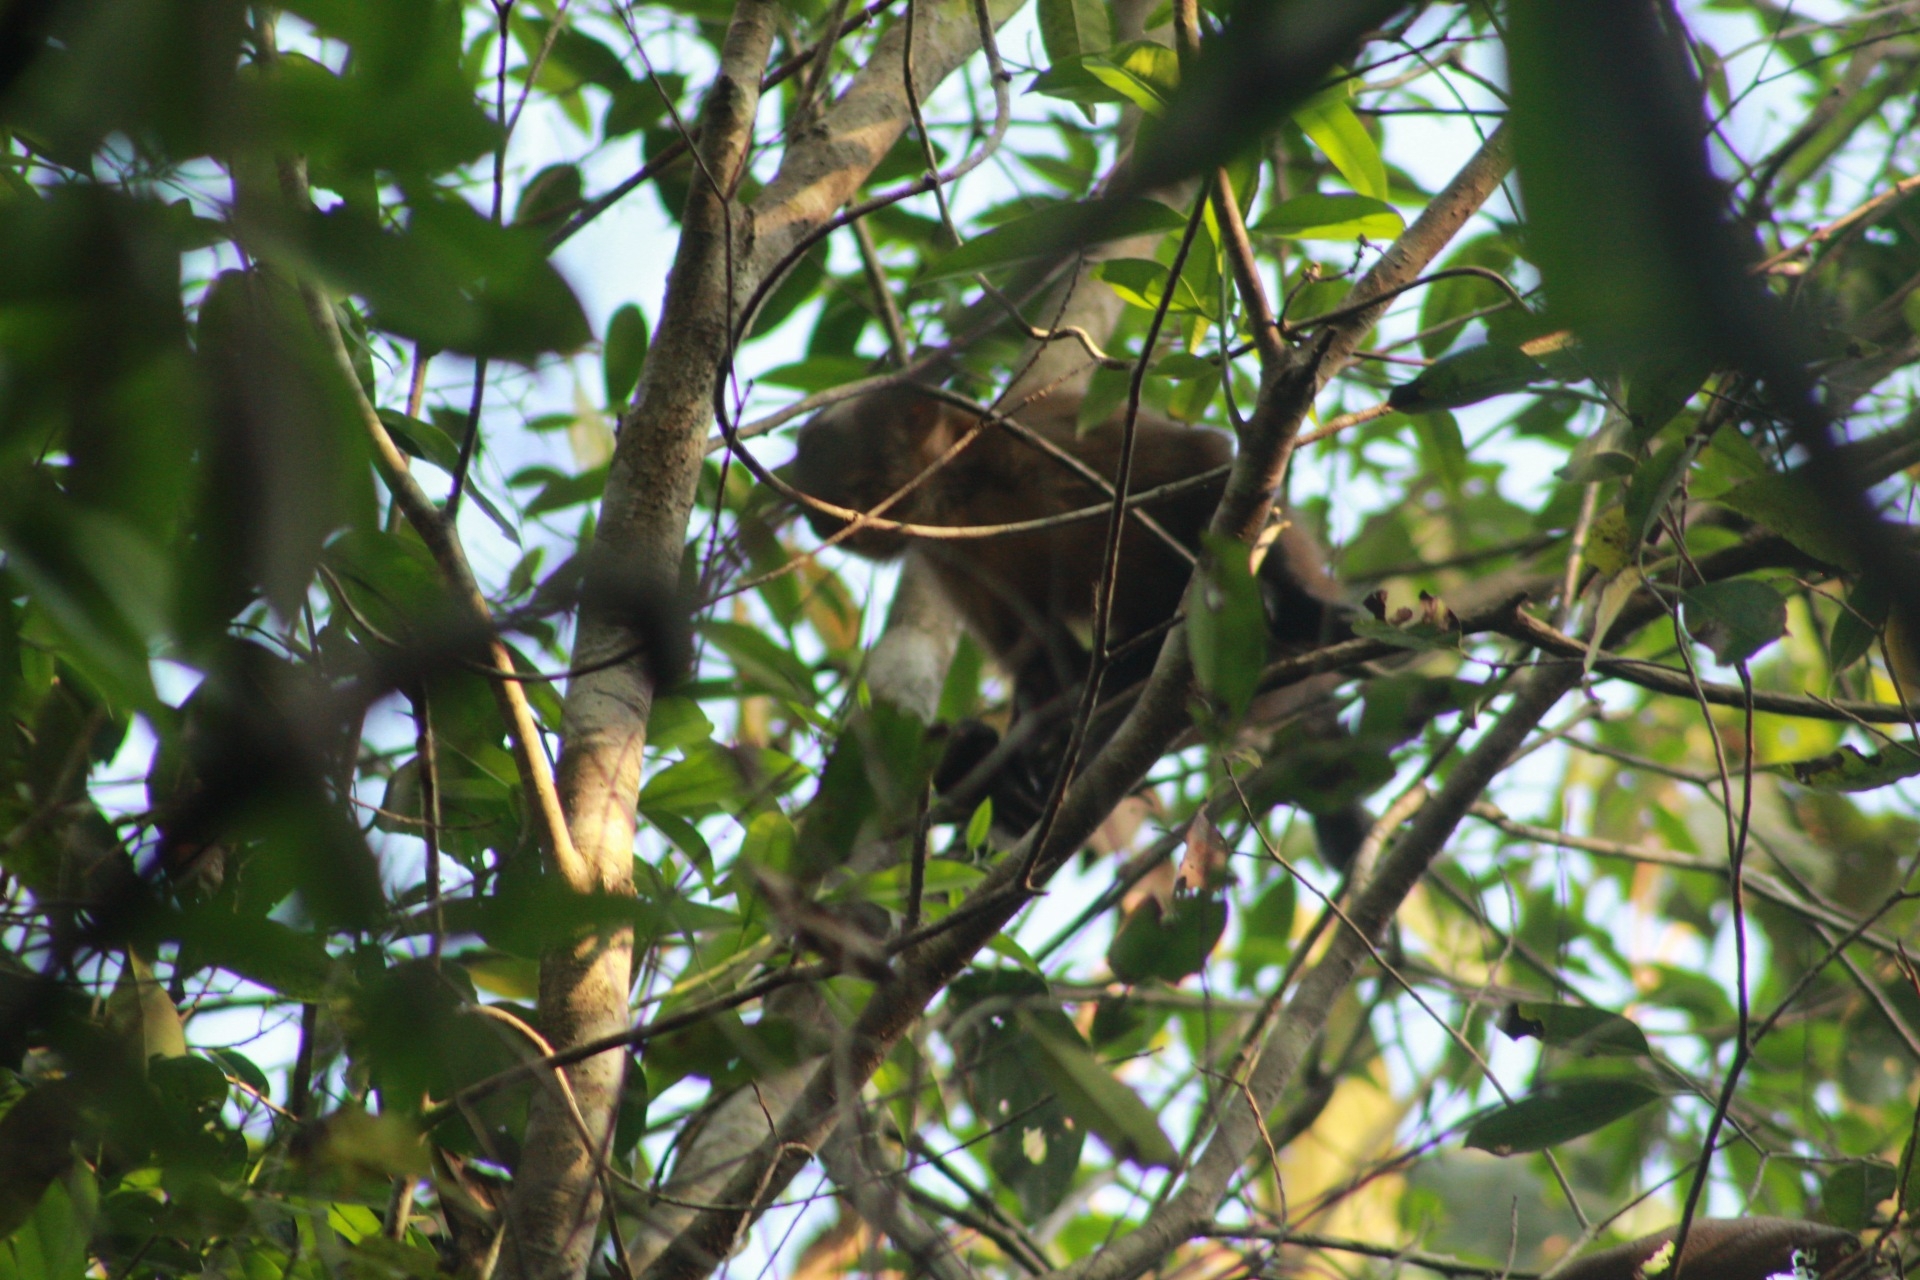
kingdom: Animalia
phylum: Chordata
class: Mammalia
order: Primates
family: Cebidae
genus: Sapajus
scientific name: Sapajus apella
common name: Tufted capuchin
